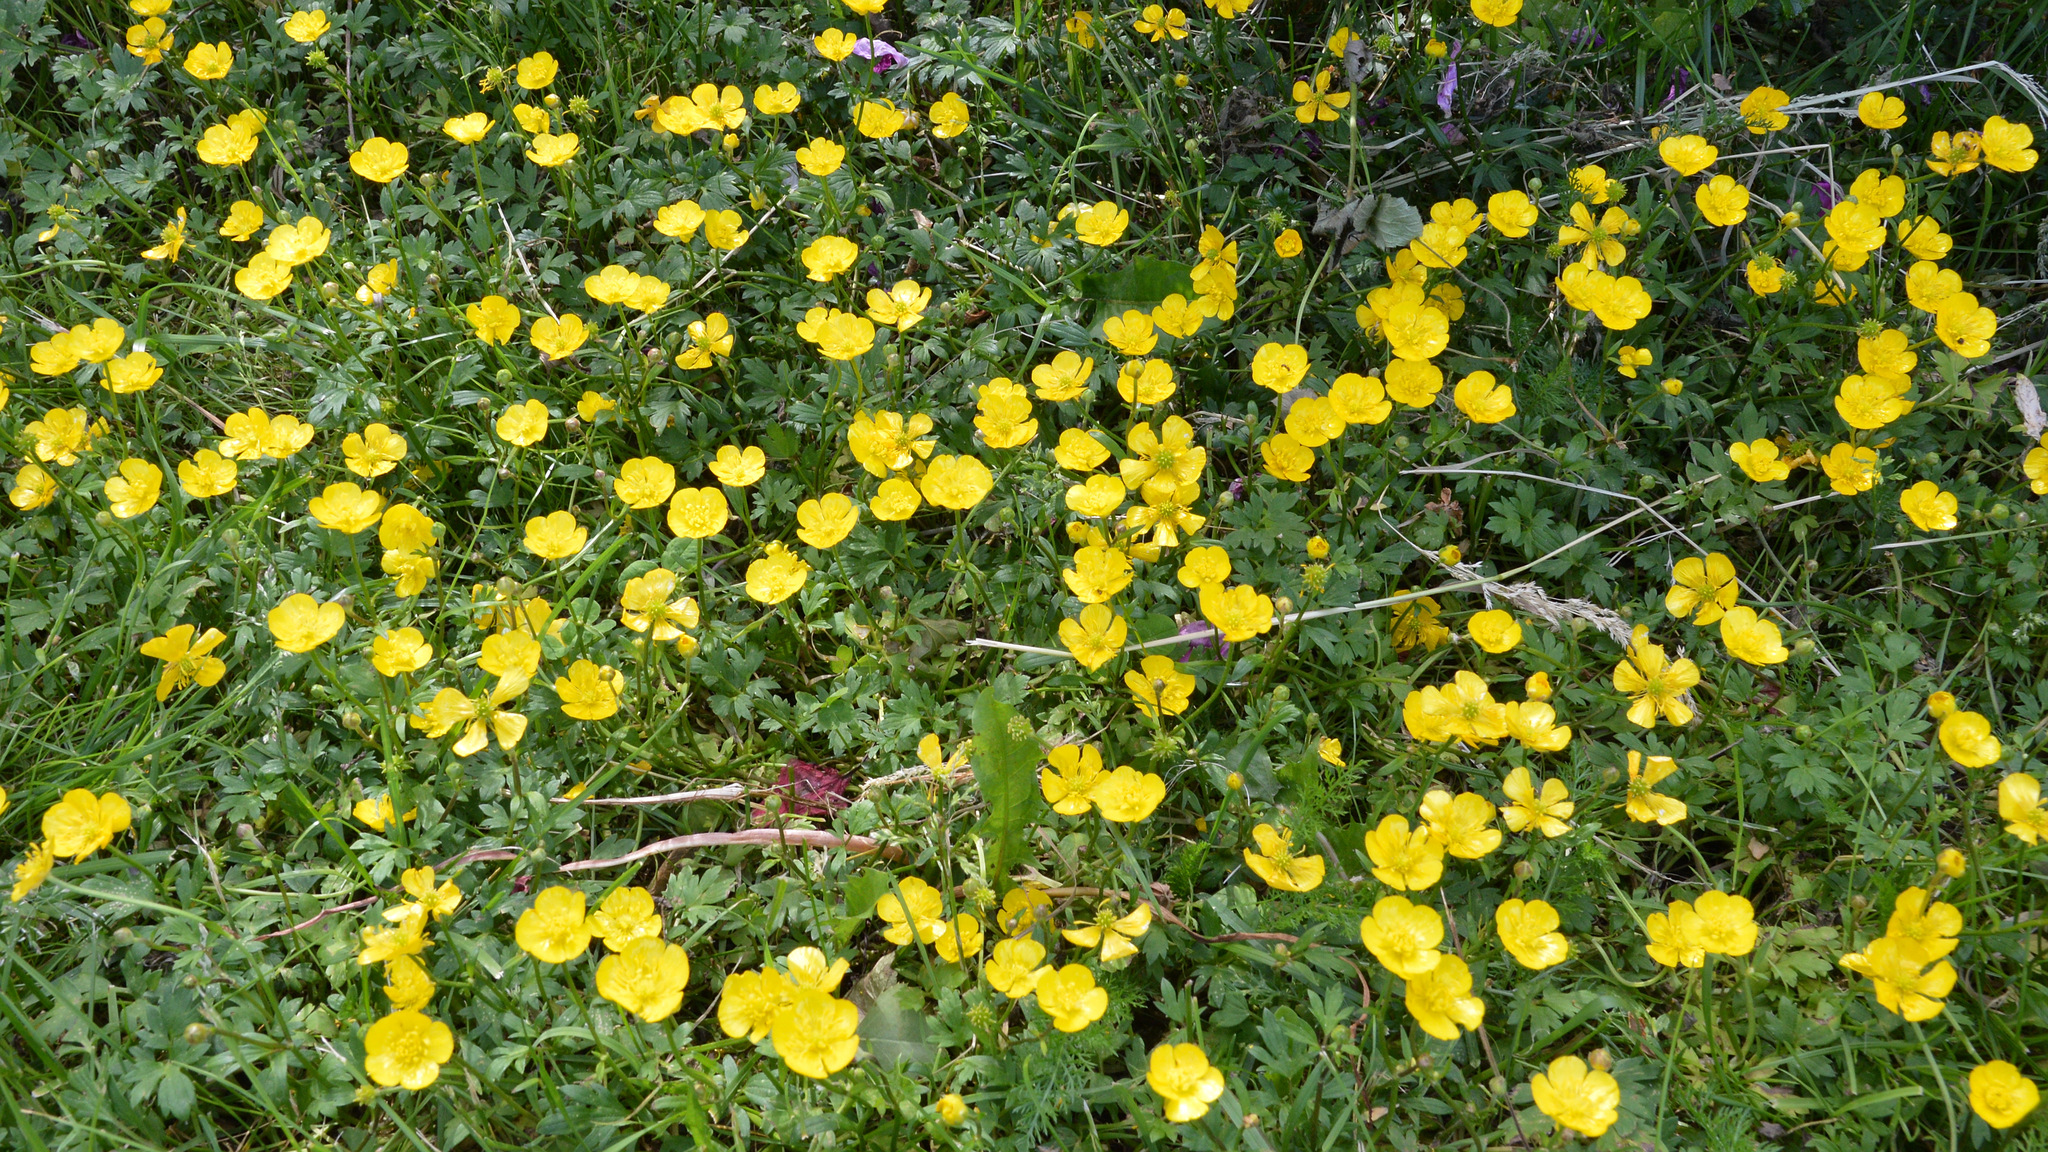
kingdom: Plantae
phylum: Tracheophyta
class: Magnoliopsida
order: Ranunculales
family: Ranunculaceae
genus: Ranunculus
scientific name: Ranunculus repens
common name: Creeping buttercup
